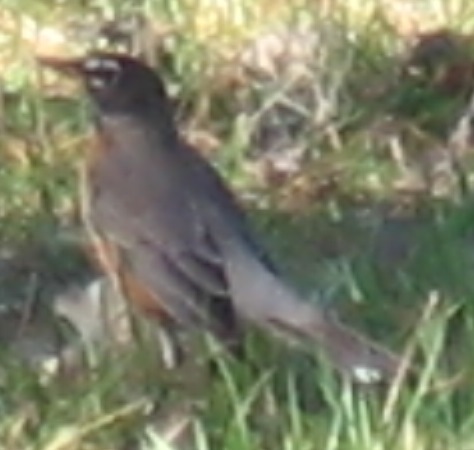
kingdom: Animalia
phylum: Chordata
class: Aves
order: Passeriformes
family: Turdidae
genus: Turdus
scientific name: Turdus migratorius
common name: American robin
